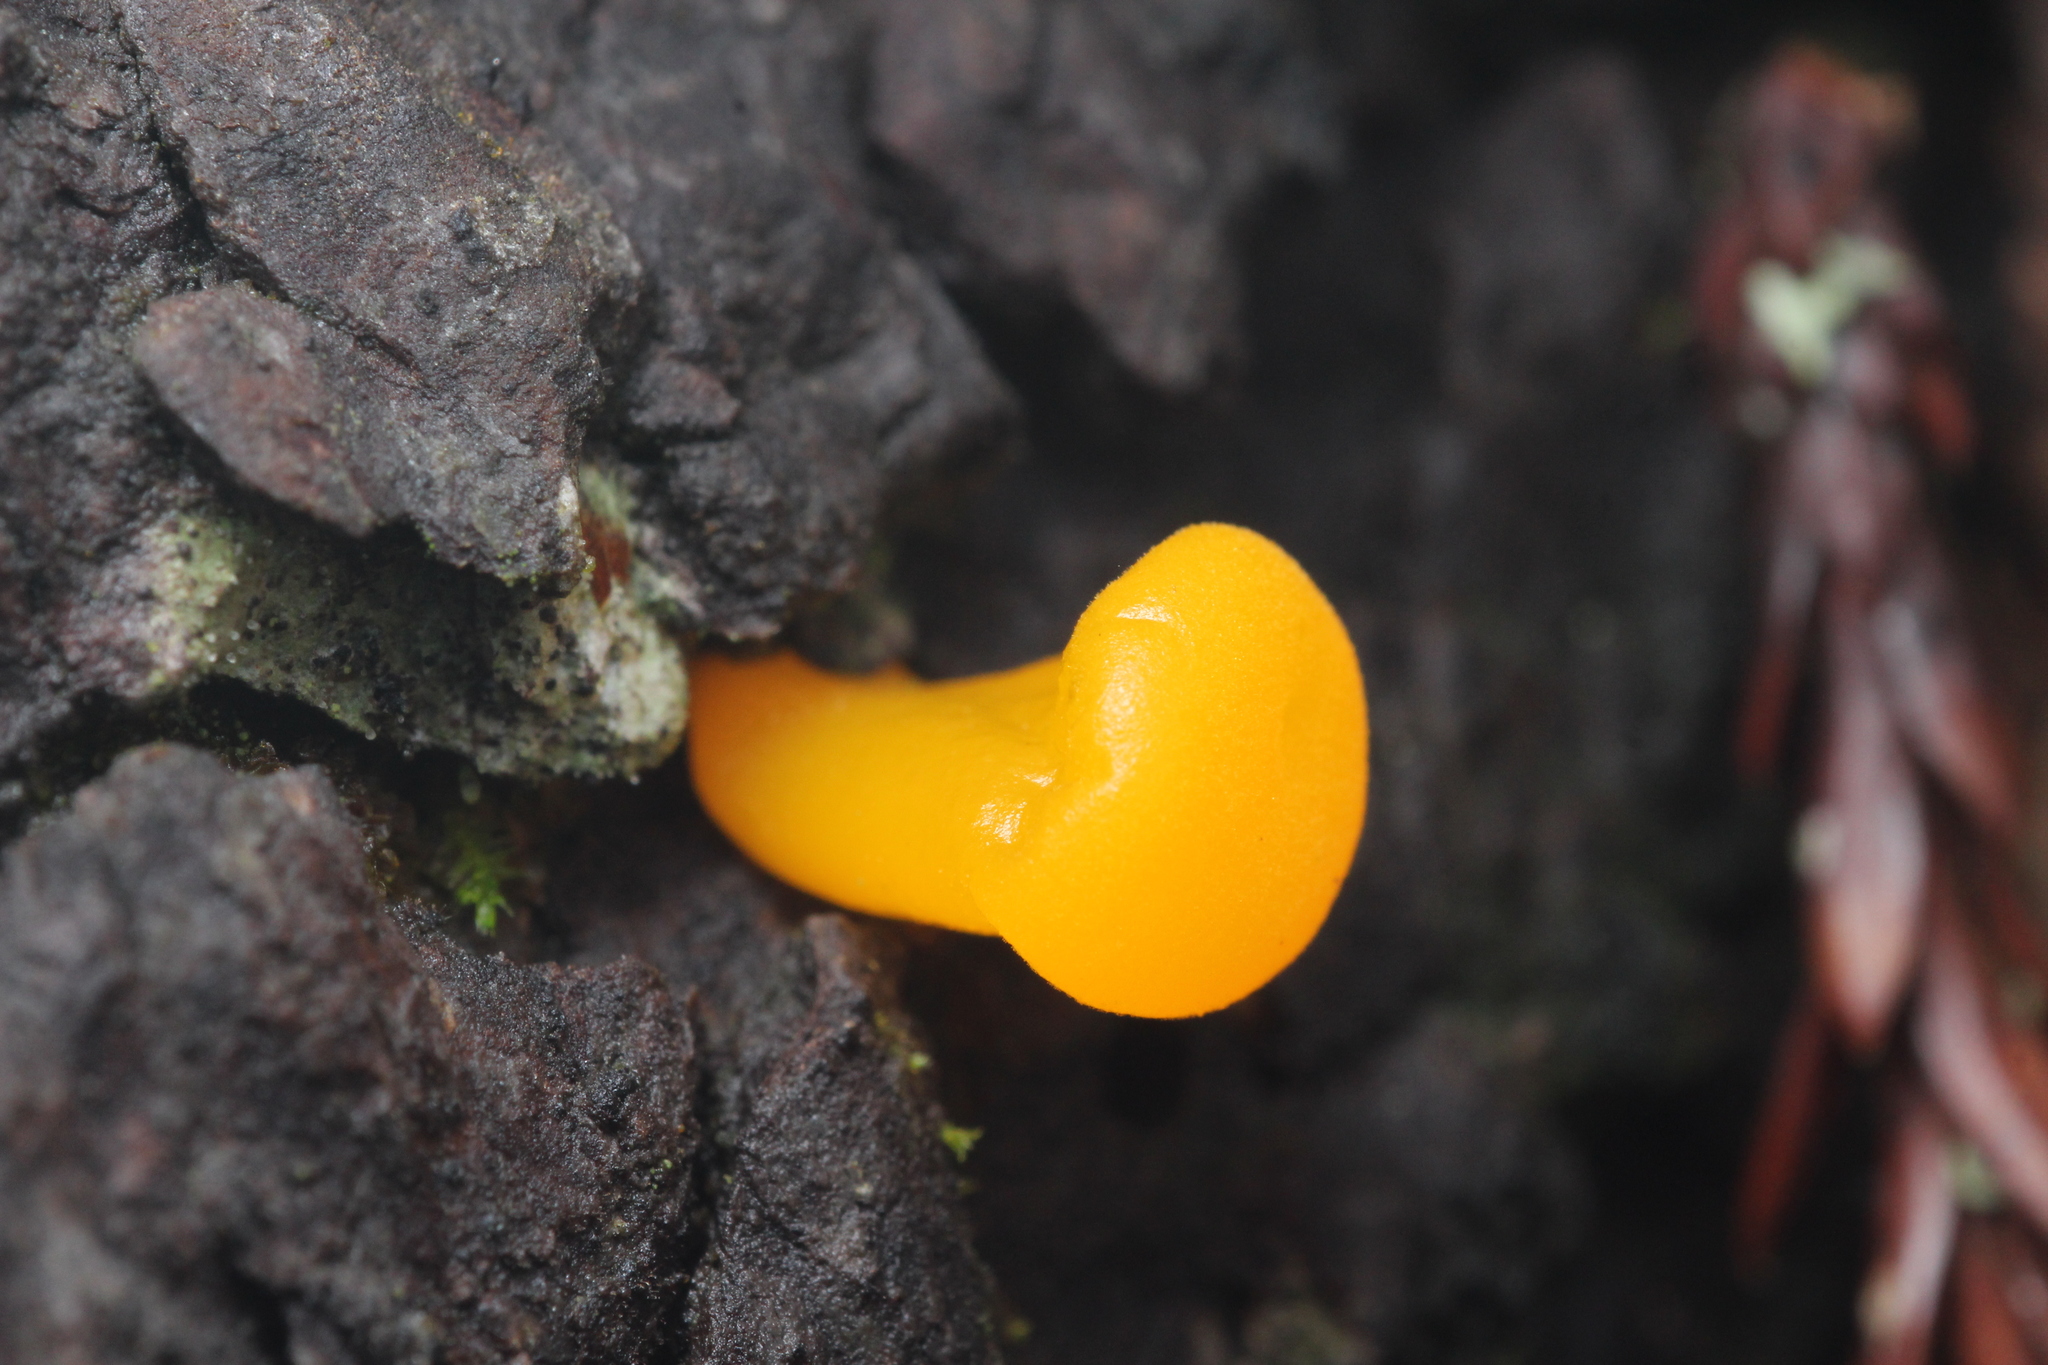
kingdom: Fungi
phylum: Basidiomycota
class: Dacrymycetes
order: Dacrymycetales
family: Dacrymycetaceae
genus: Dacrymyces
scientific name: Dacrymyces chrysospermus
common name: Orange jelly spot
